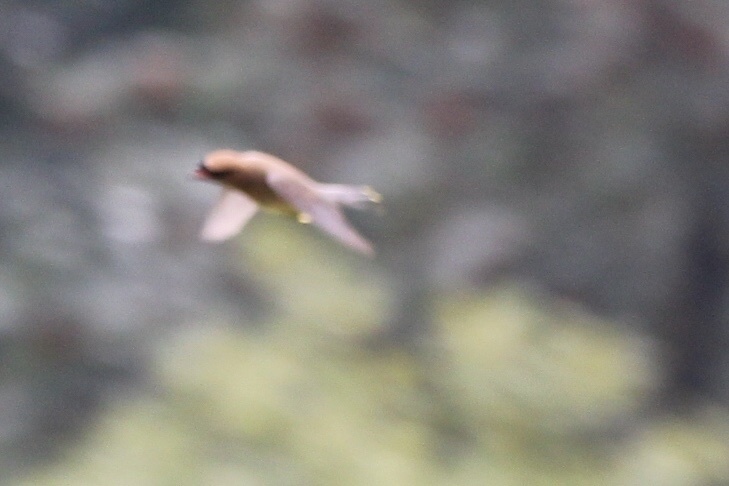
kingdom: Animalia
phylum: Chordata
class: Aves
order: Passeriformes
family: Bombycillidae
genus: Bombycilla
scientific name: Bombycilla cedrorum
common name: Cedar waxwing
